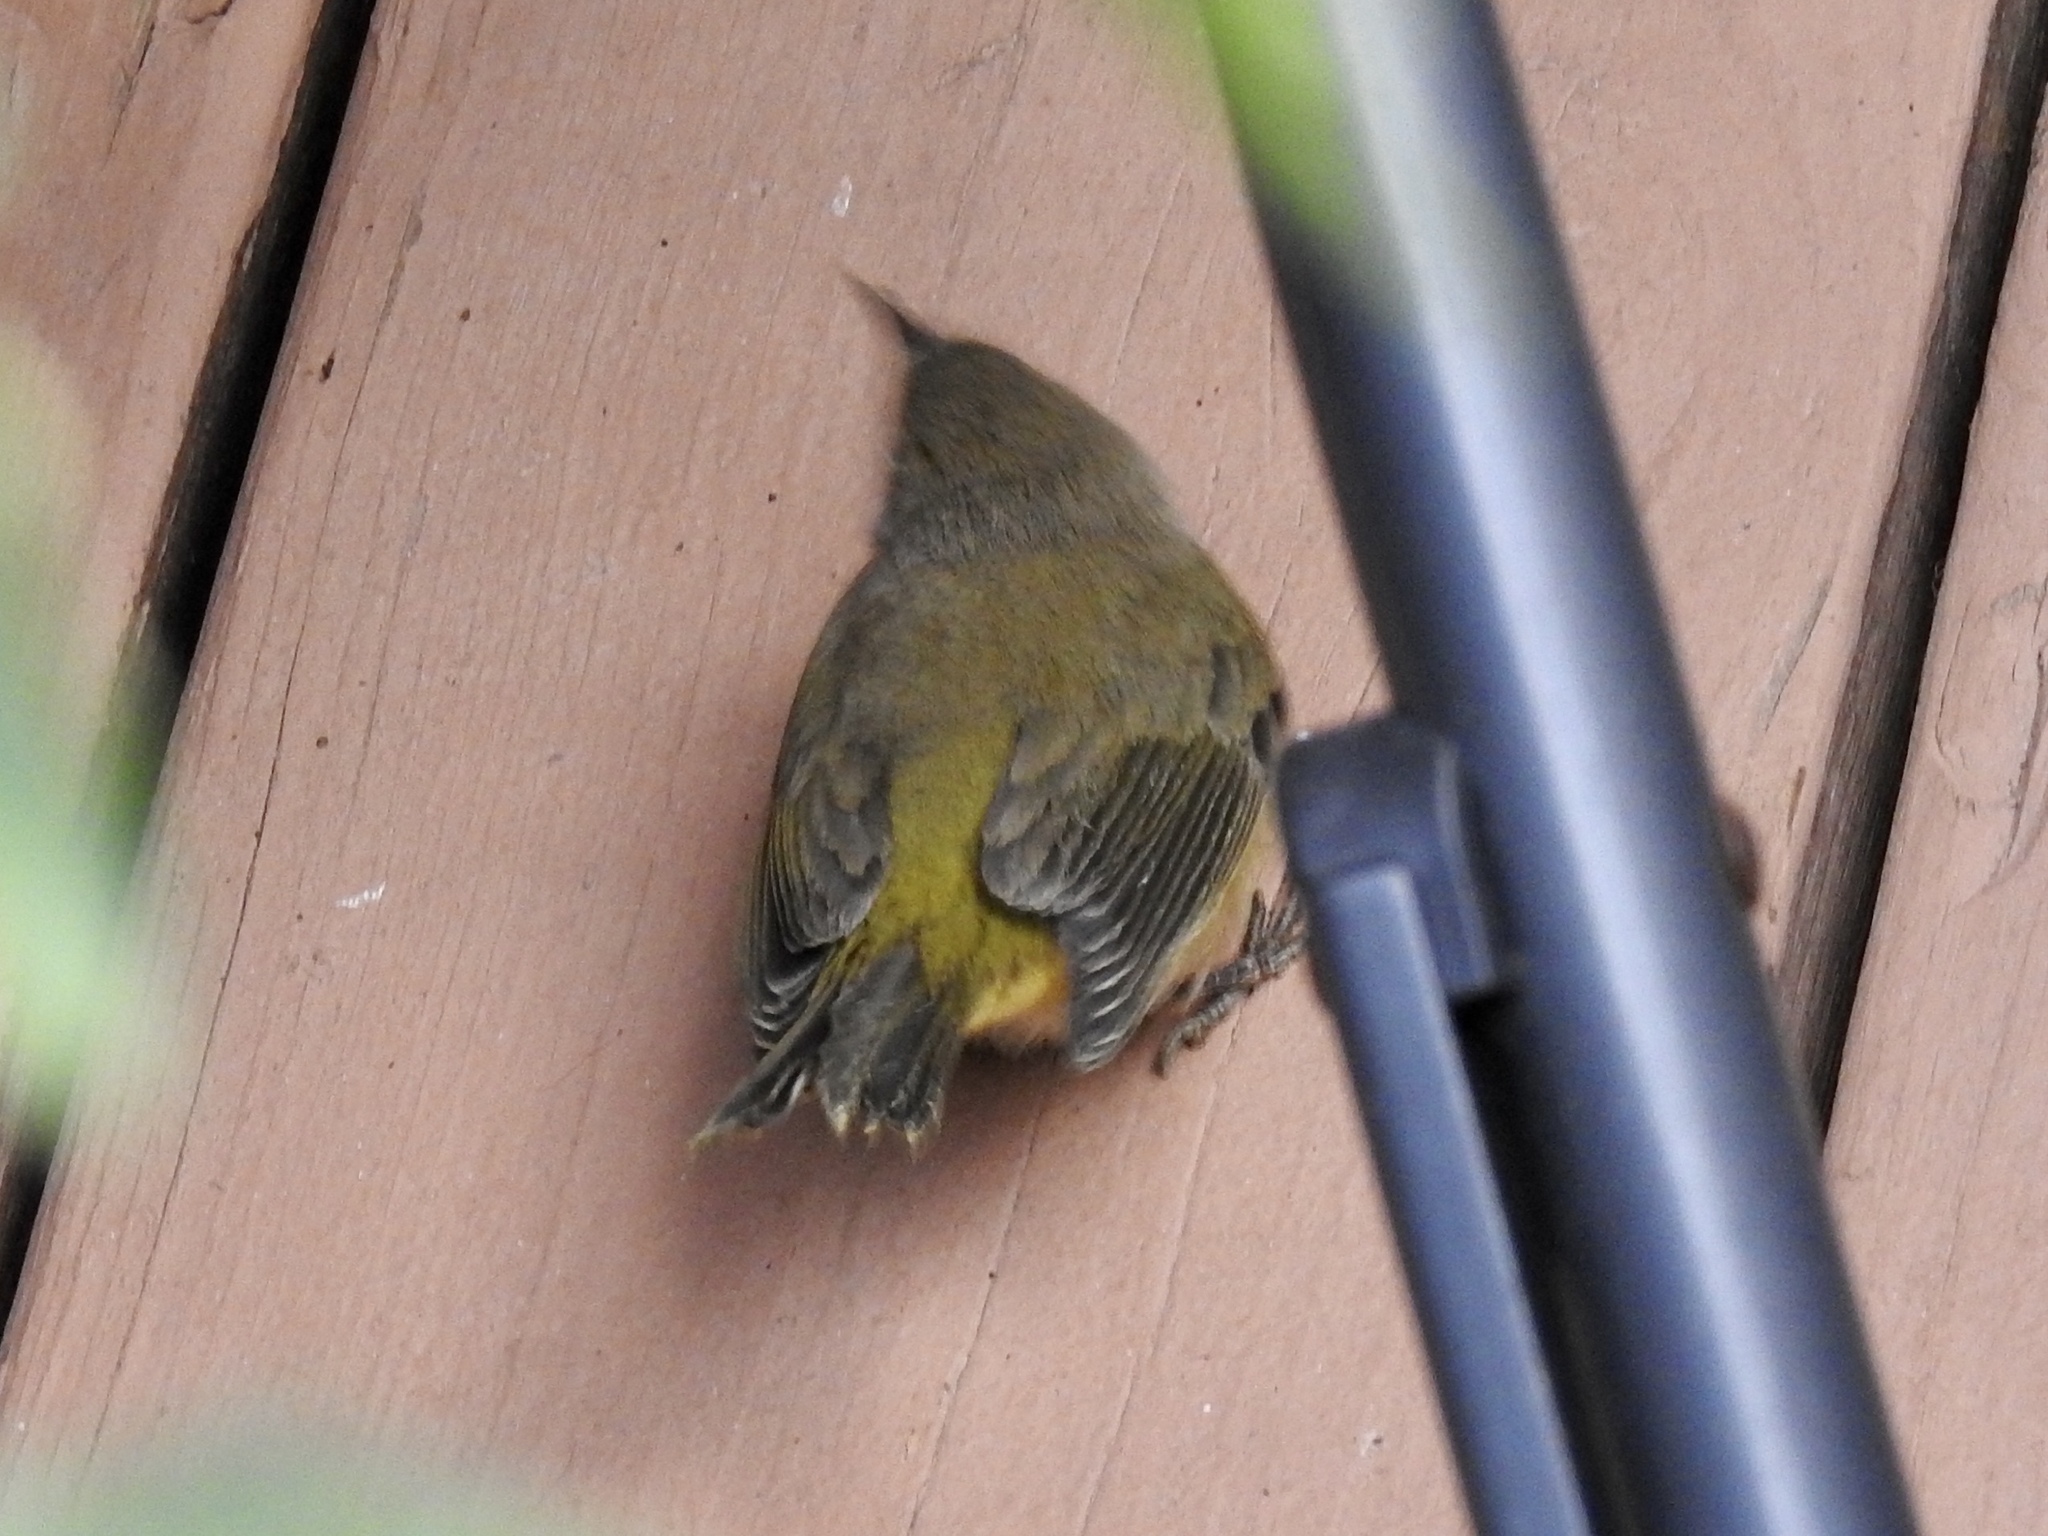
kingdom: Animalia
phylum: Chordata
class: Aves
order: Passeriformes
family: Parulidae
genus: Leiothlypis
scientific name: Leiothlypis celata
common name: Orange-crowned warbler
